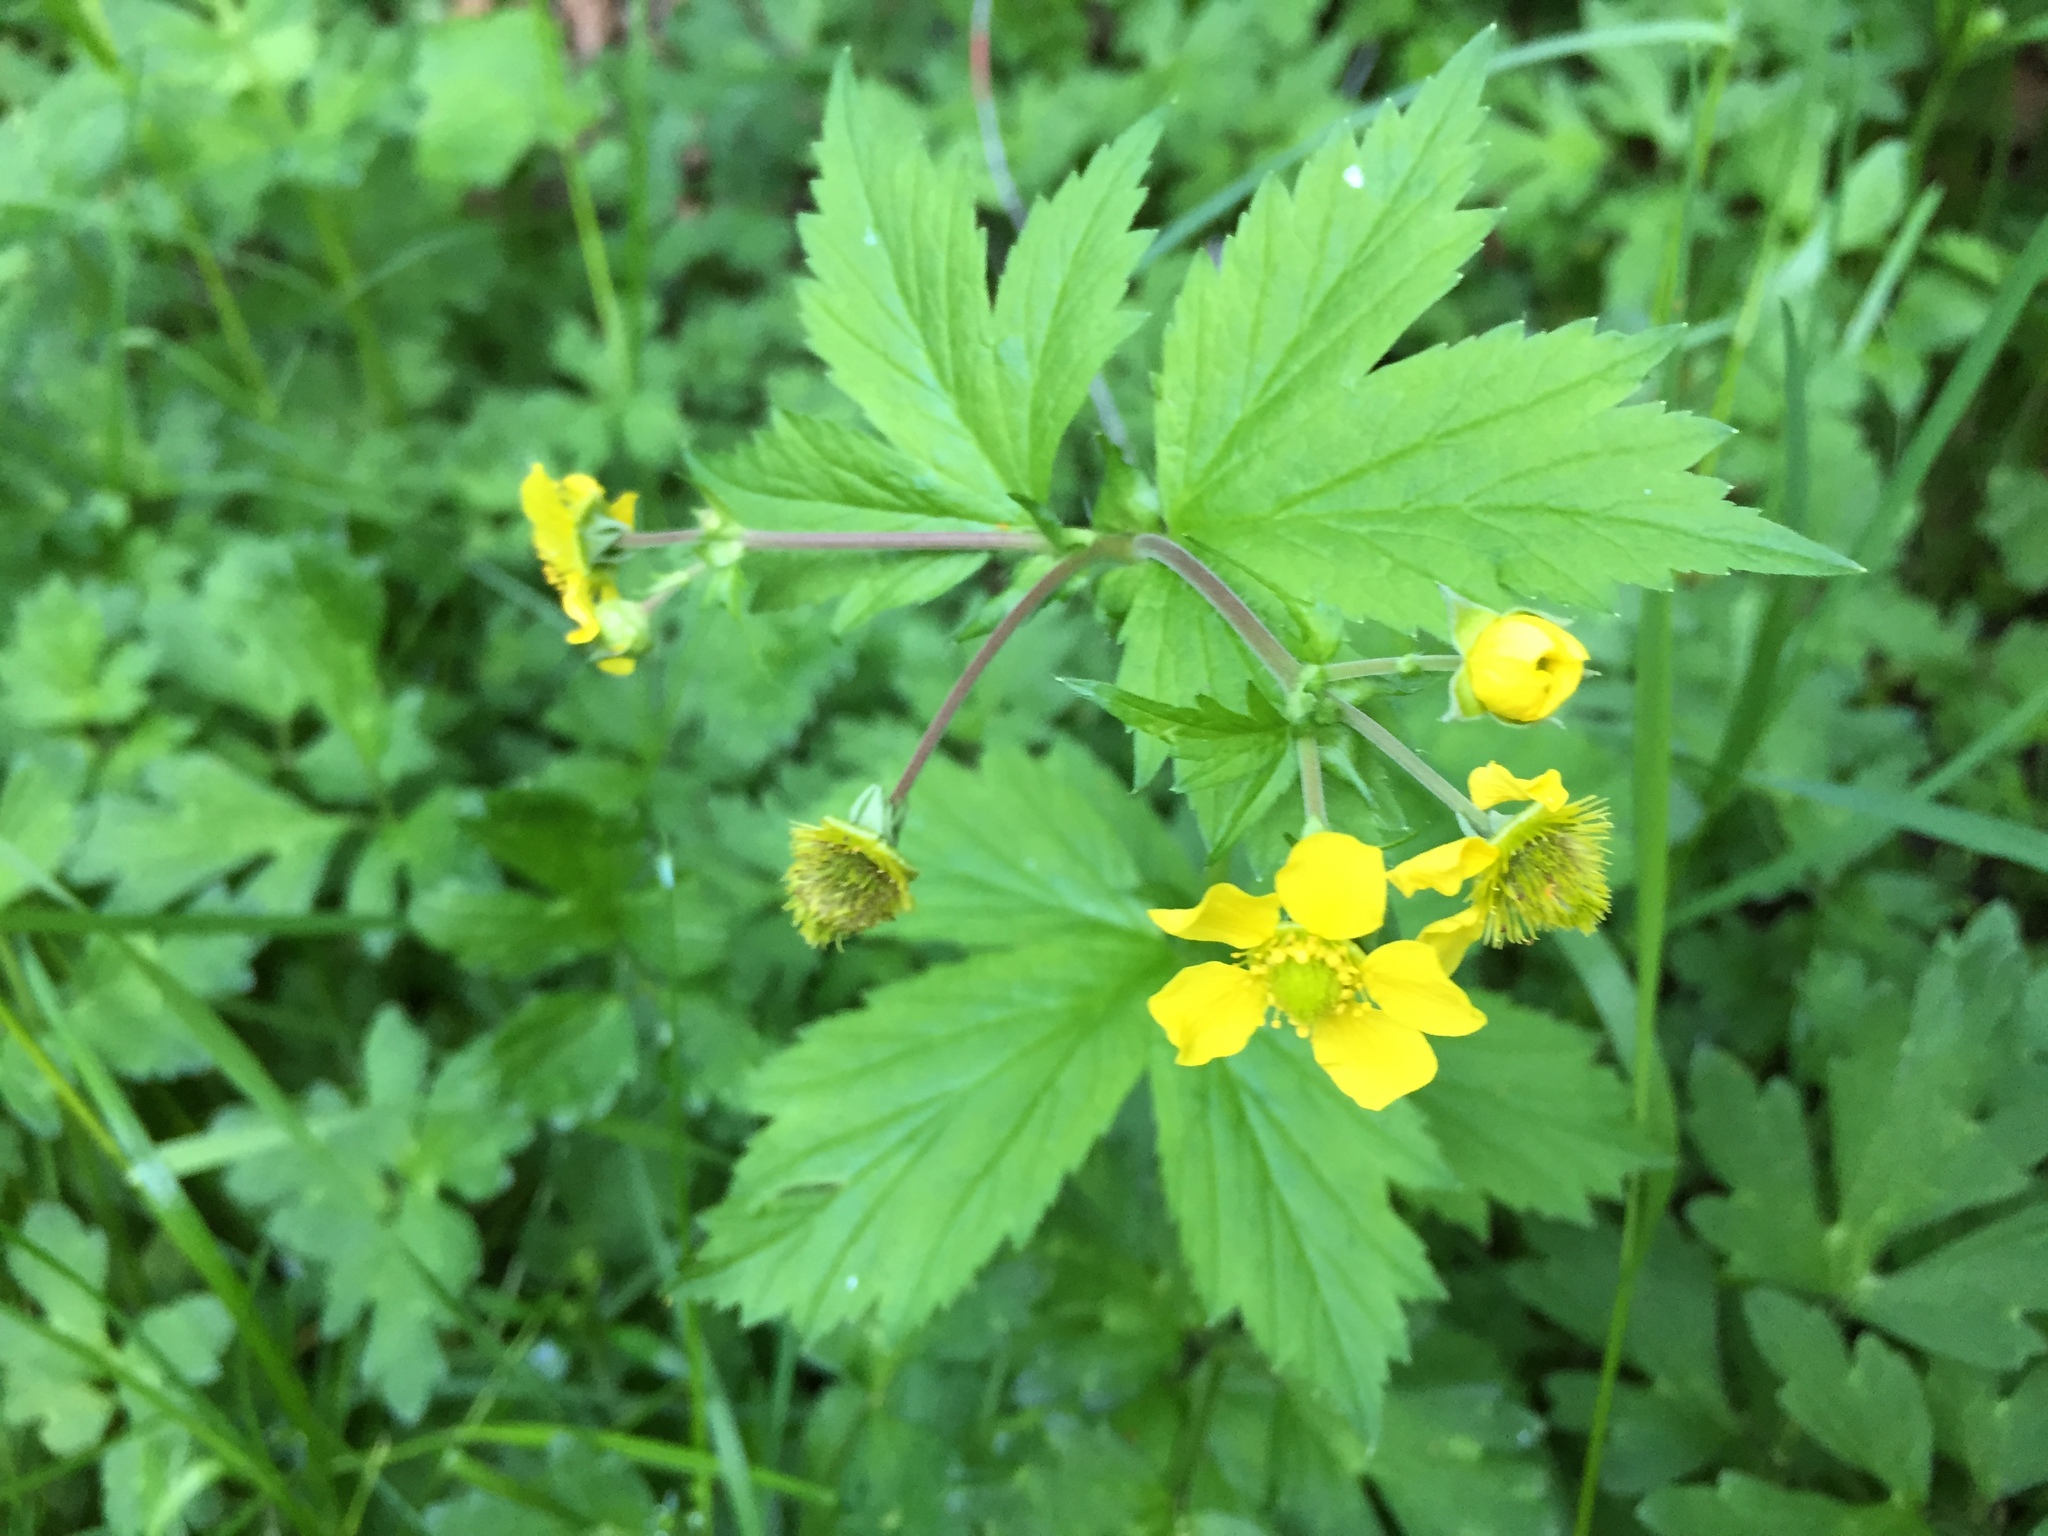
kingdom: Plantae
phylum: Tracheophyta
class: Magnoliopsida
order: Rosales
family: Rosaceae
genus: Geum
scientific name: Geum macrophyllum
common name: Large-leaved avens
